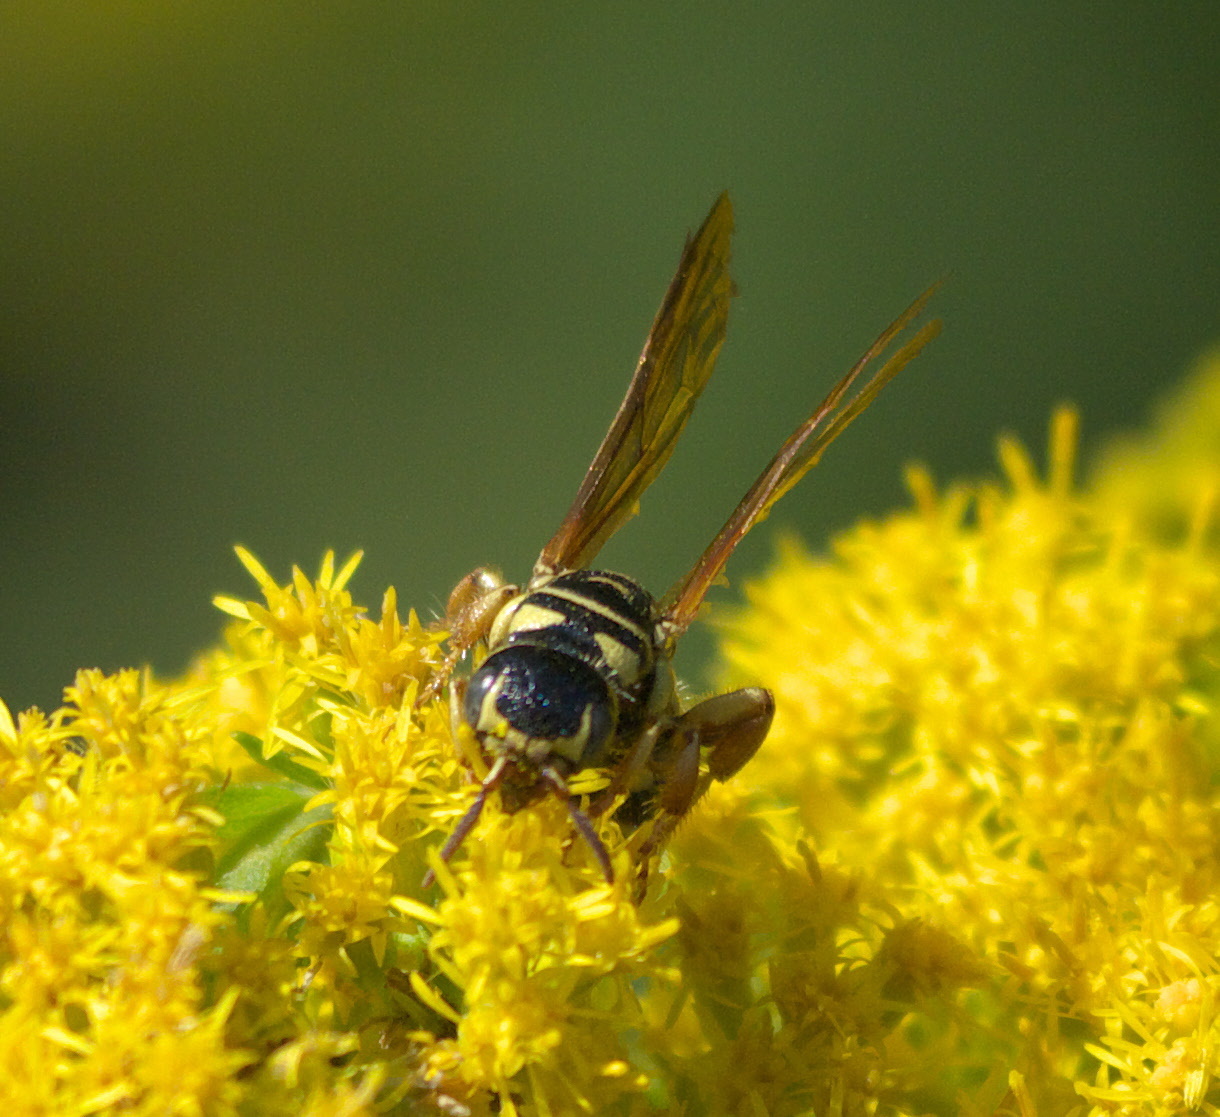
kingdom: Animalia
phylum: Arthropoda
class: Insecta
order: Hymenoptera
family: Tiphiidae
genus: Myzinum
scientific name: Myzinum quinquecinctum
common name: Five-banded thynnid wasp
